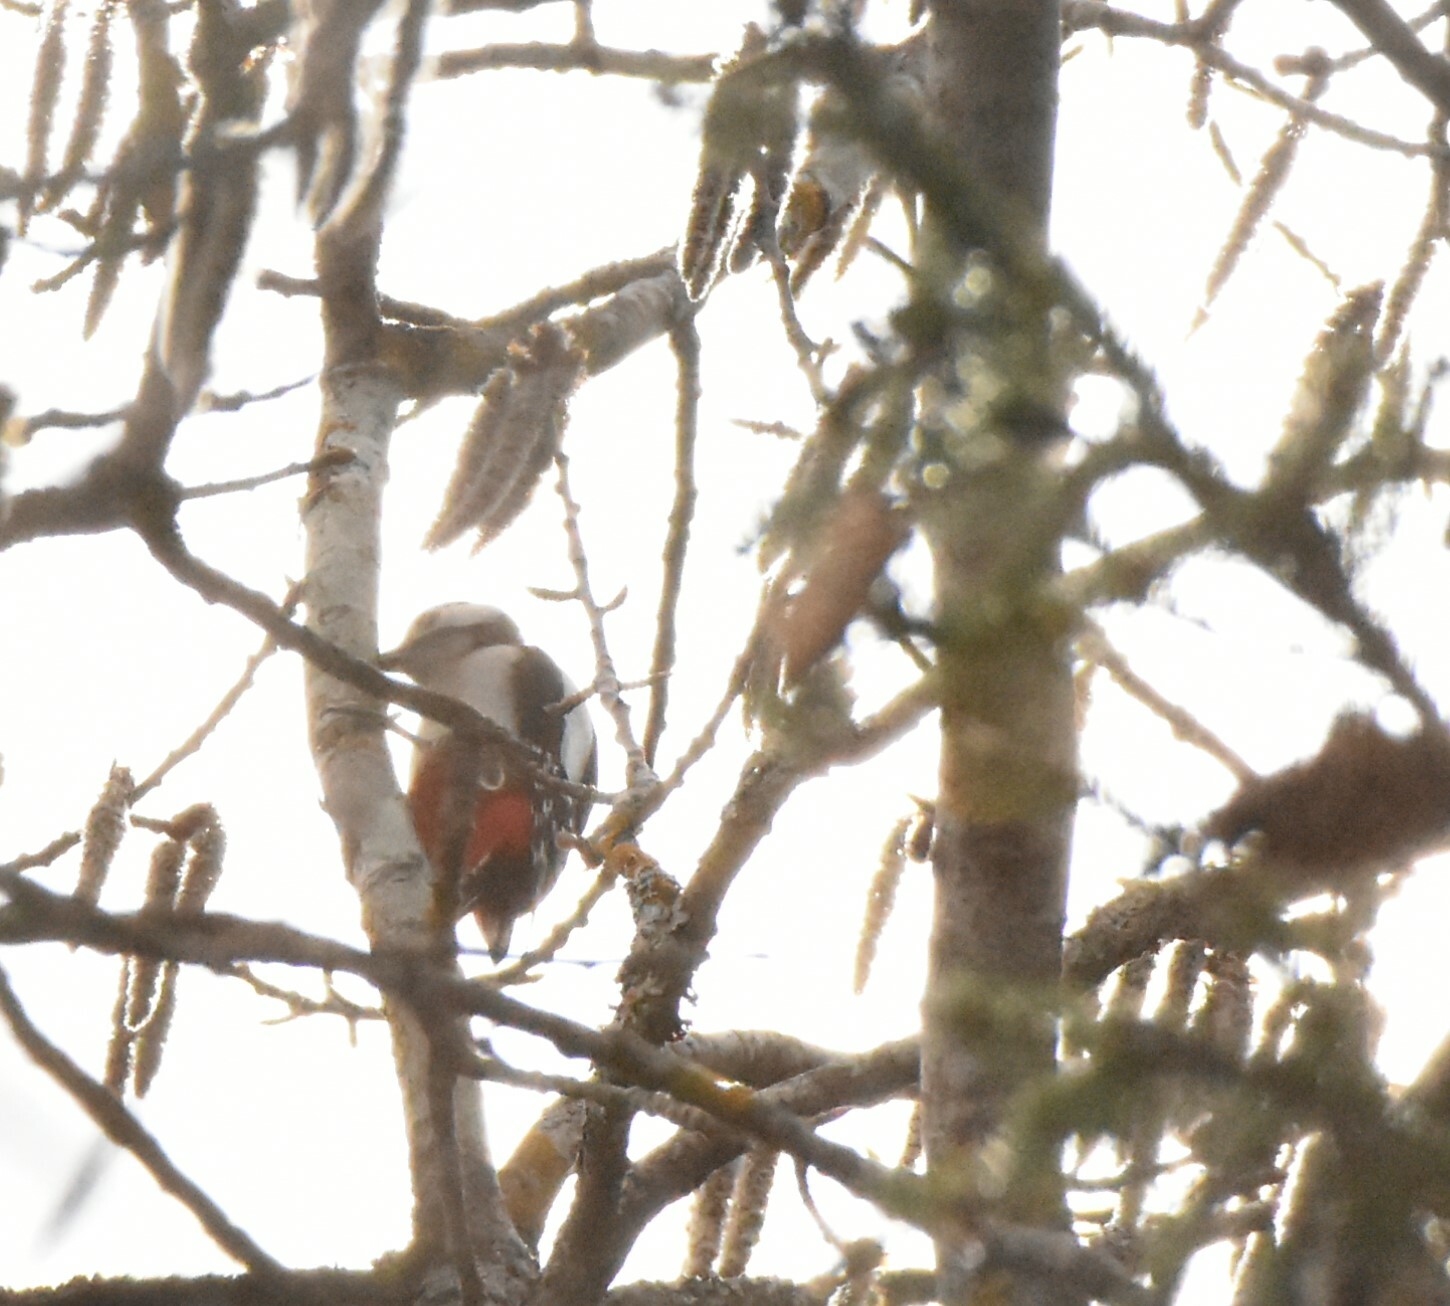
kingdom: Animalia
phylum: Chordata
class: Aves
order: Piciformes
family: Picidae
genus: Dendrocopos
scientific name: Dendrocopos major
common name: Great spotted woodpecker
